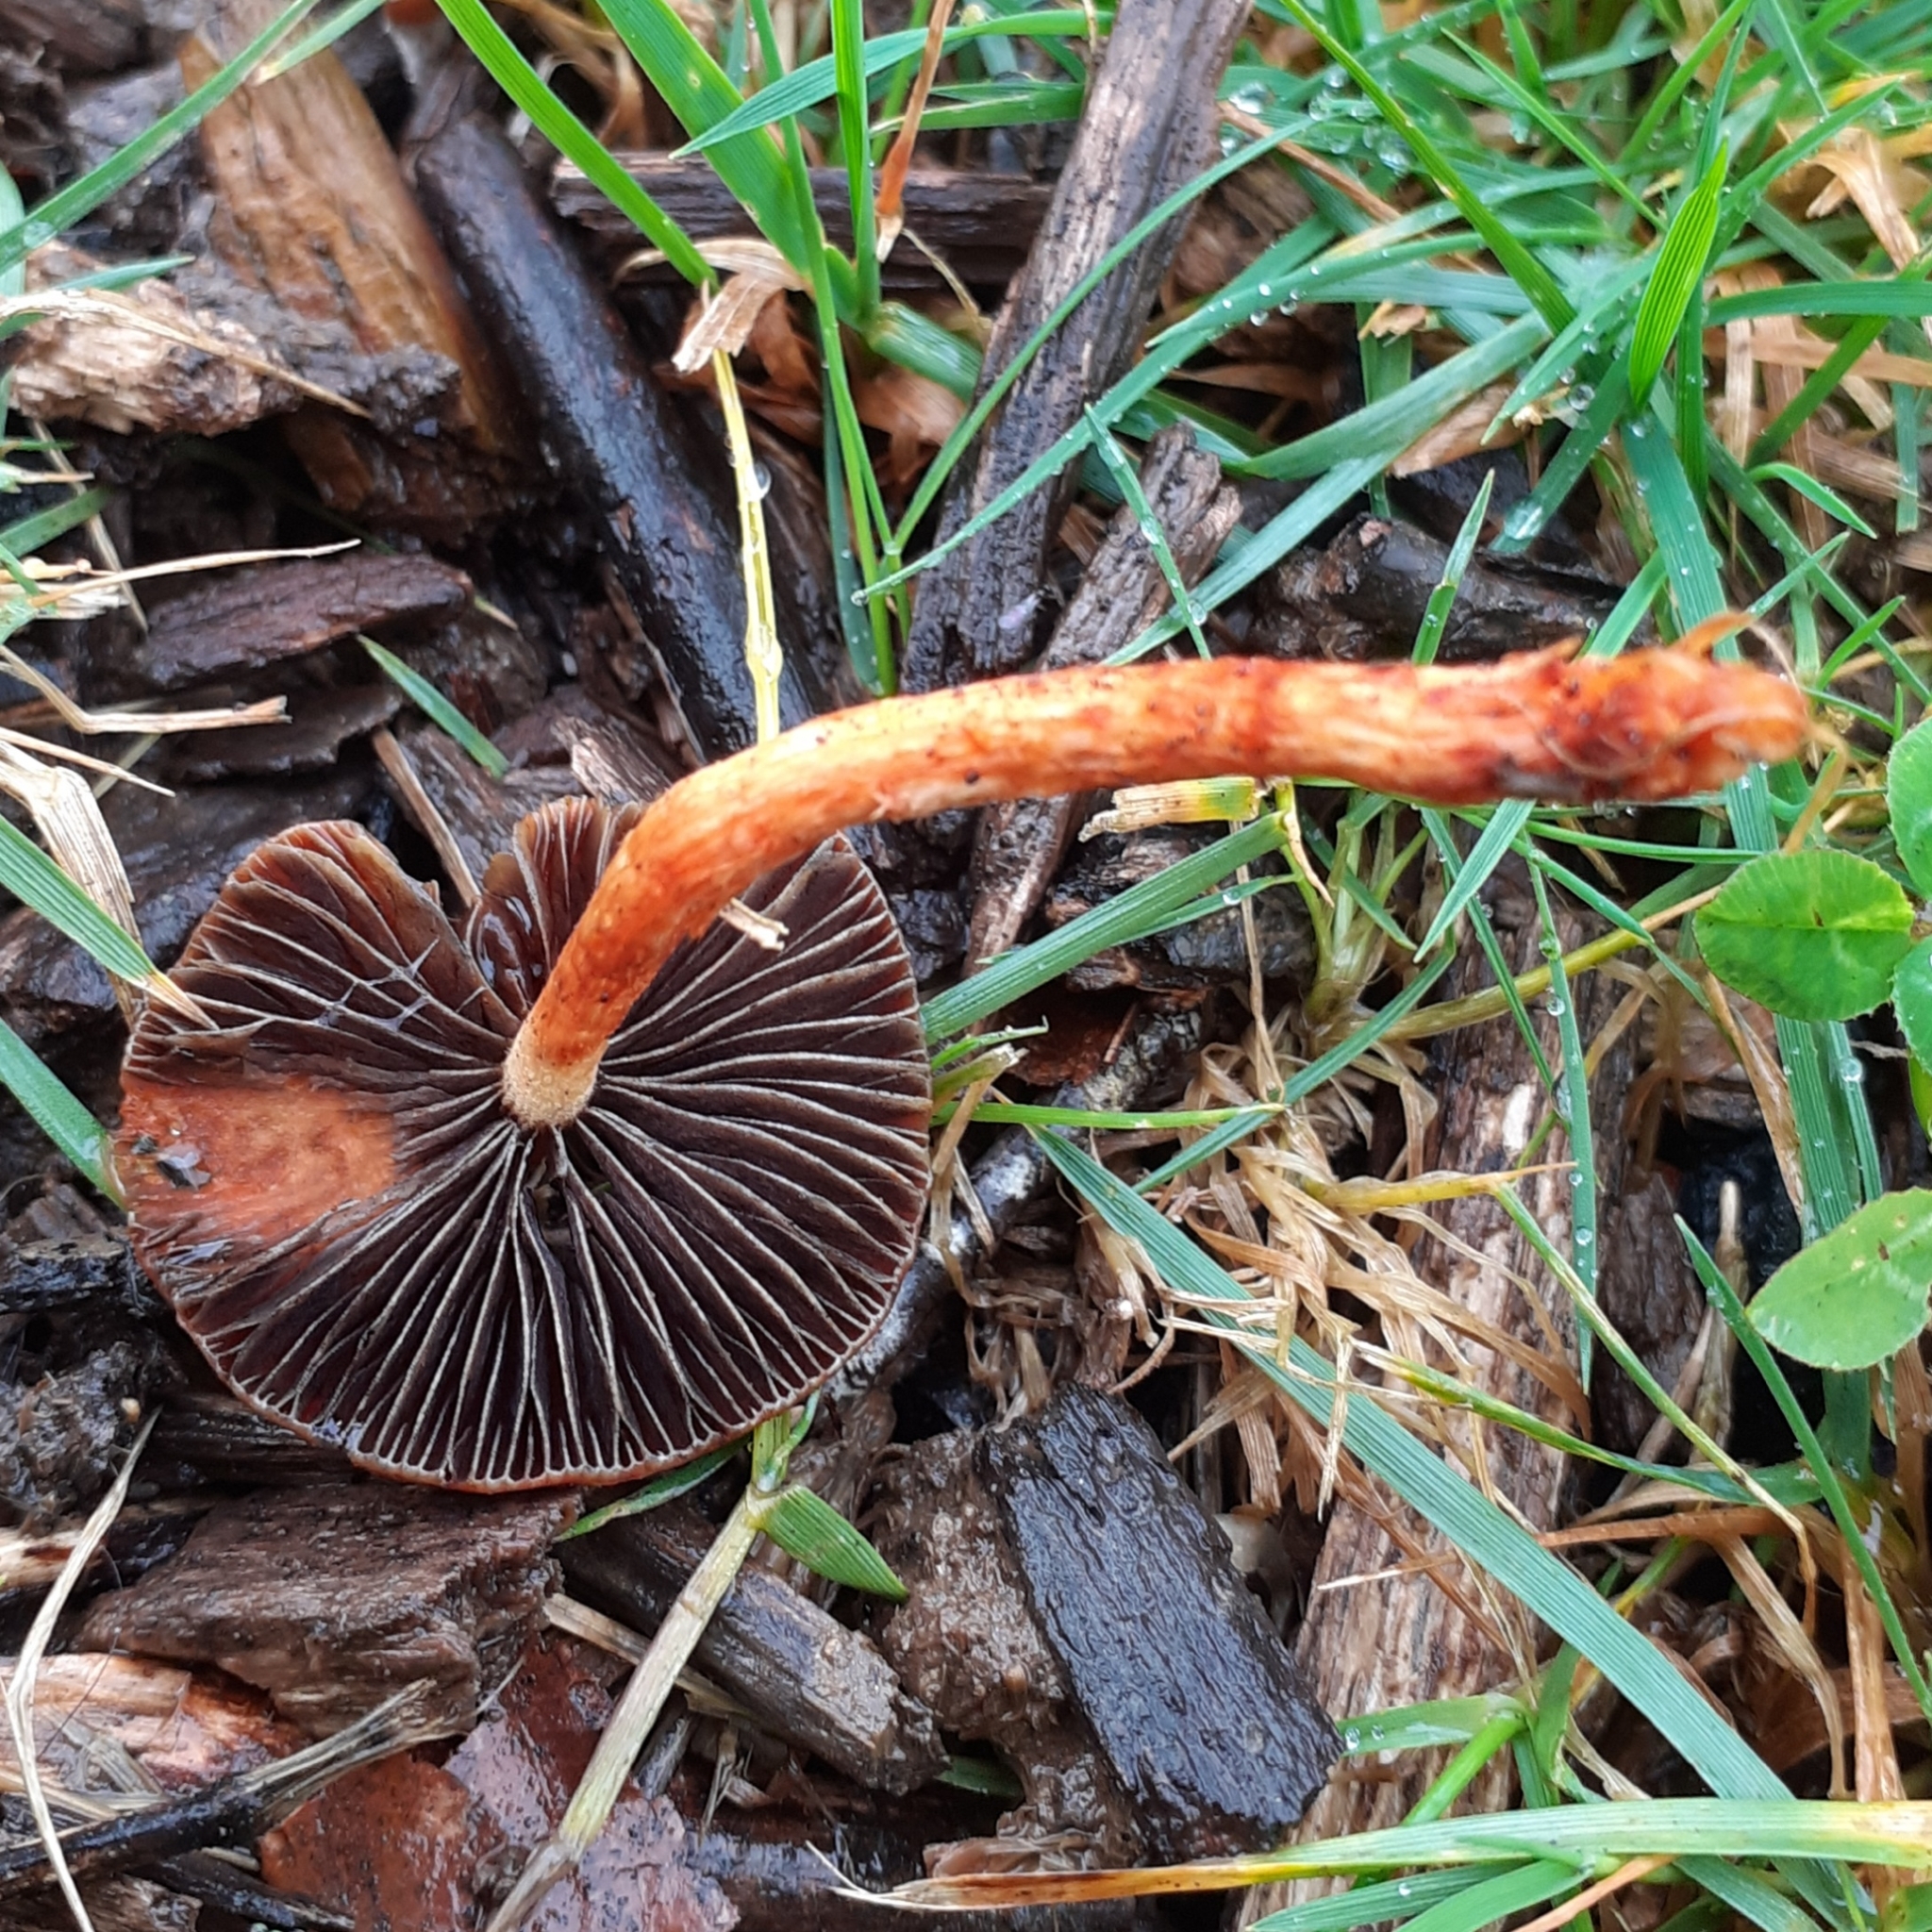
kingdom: Fungi
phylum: Basidiomycota
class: Agaricomycetes
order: Agaricales
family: Strophariaceae
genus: Leratiomyces
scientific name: Leratiomyces ceres
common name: Redlead roundhead
